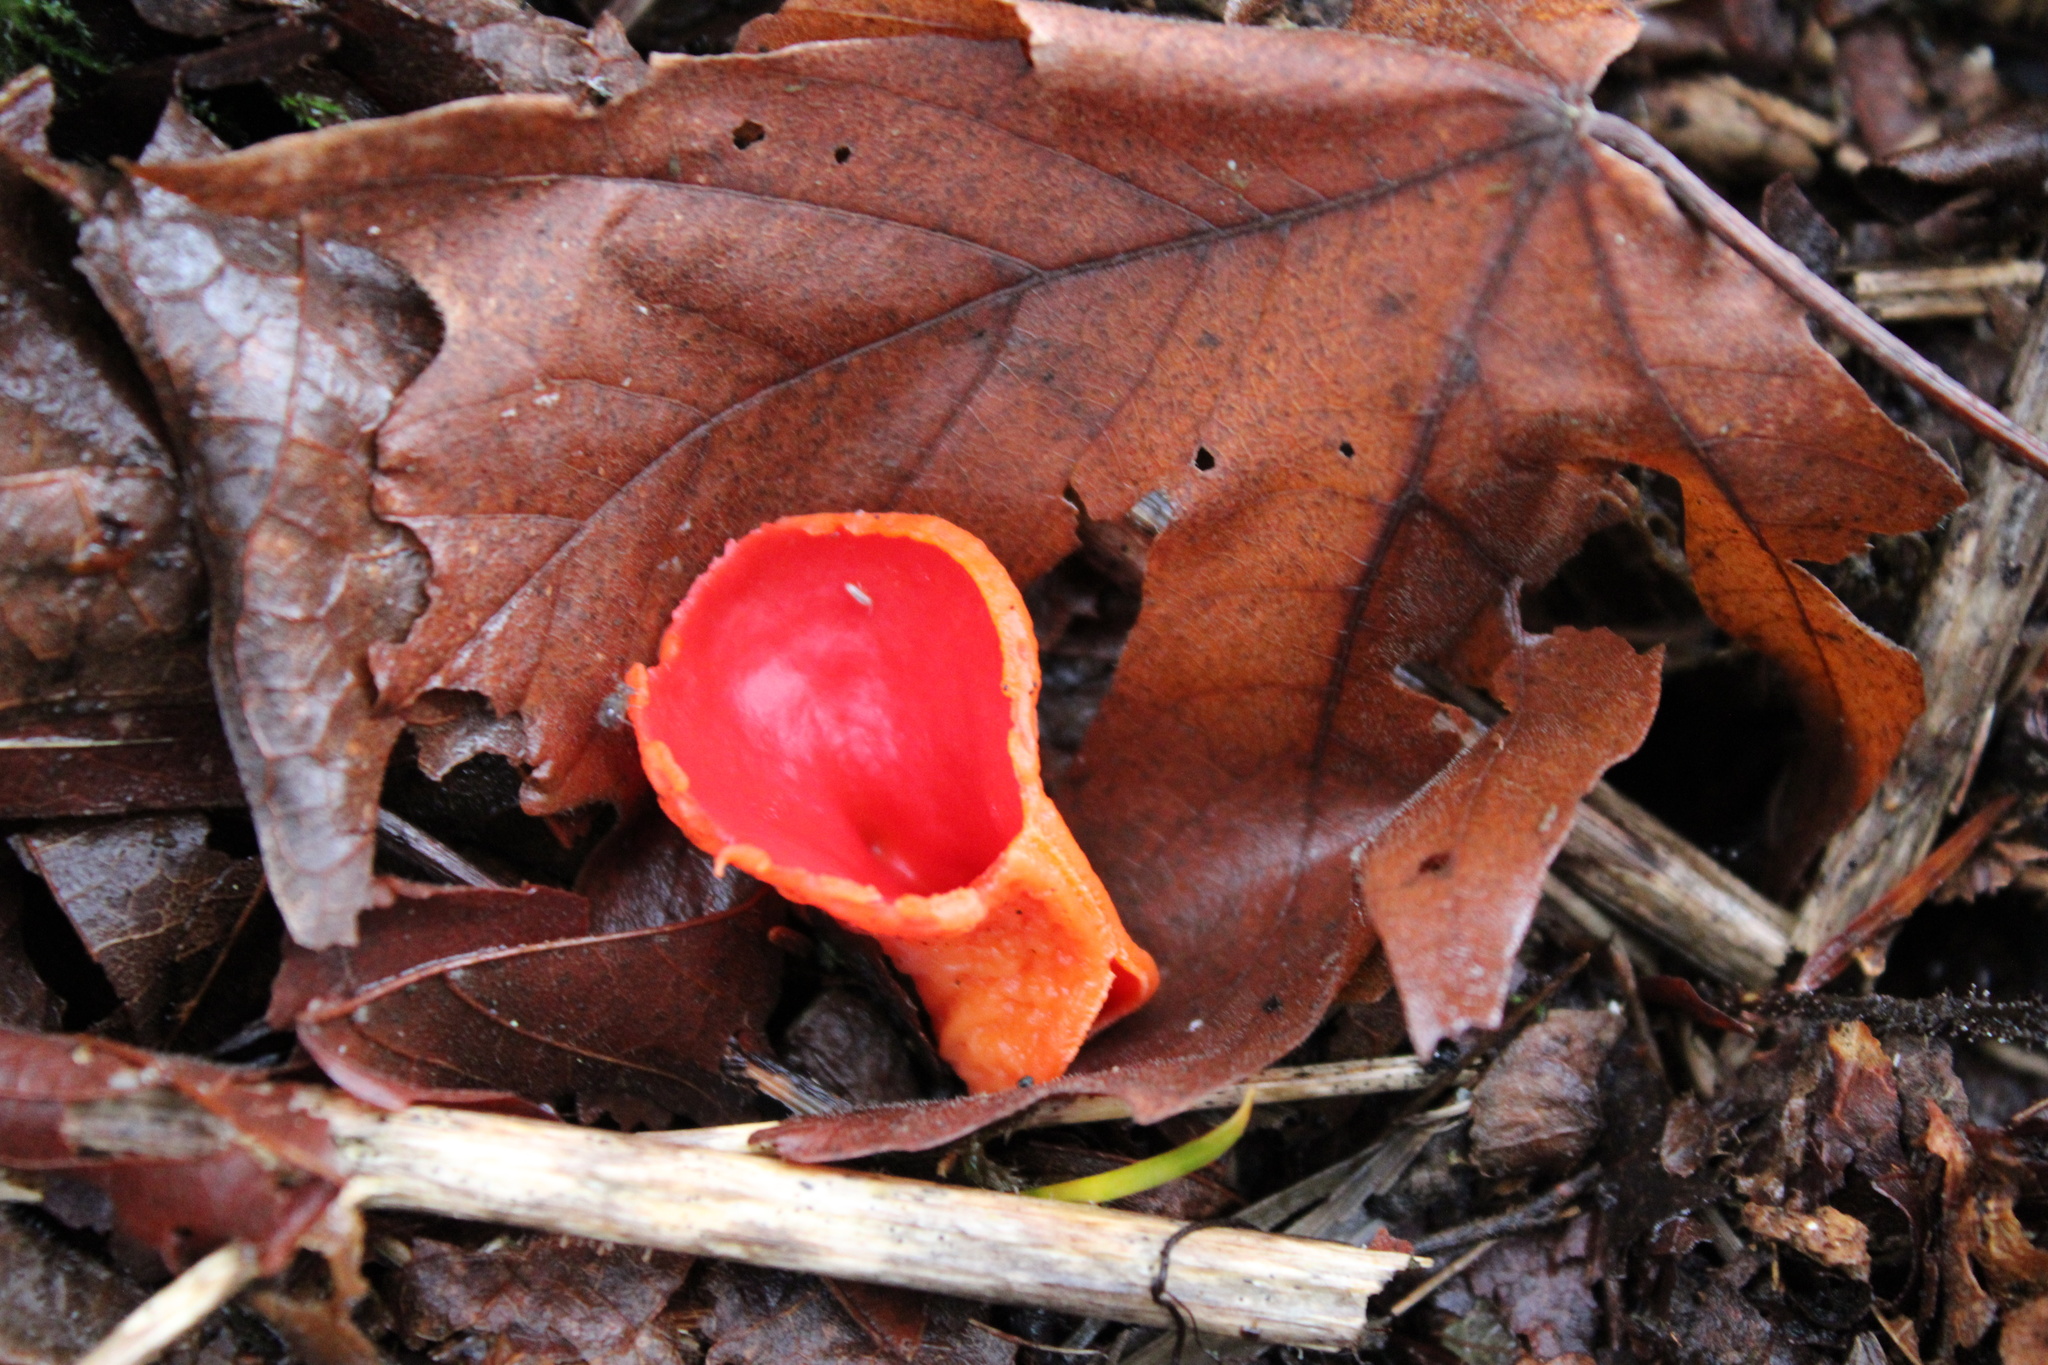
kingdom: Fungi
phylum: Ascomycota
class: Pezizomycetes
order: Pezizales
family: Sarcoscyphaceae
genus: Sarcoscypha
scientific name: Sarcoscypha coccinea
